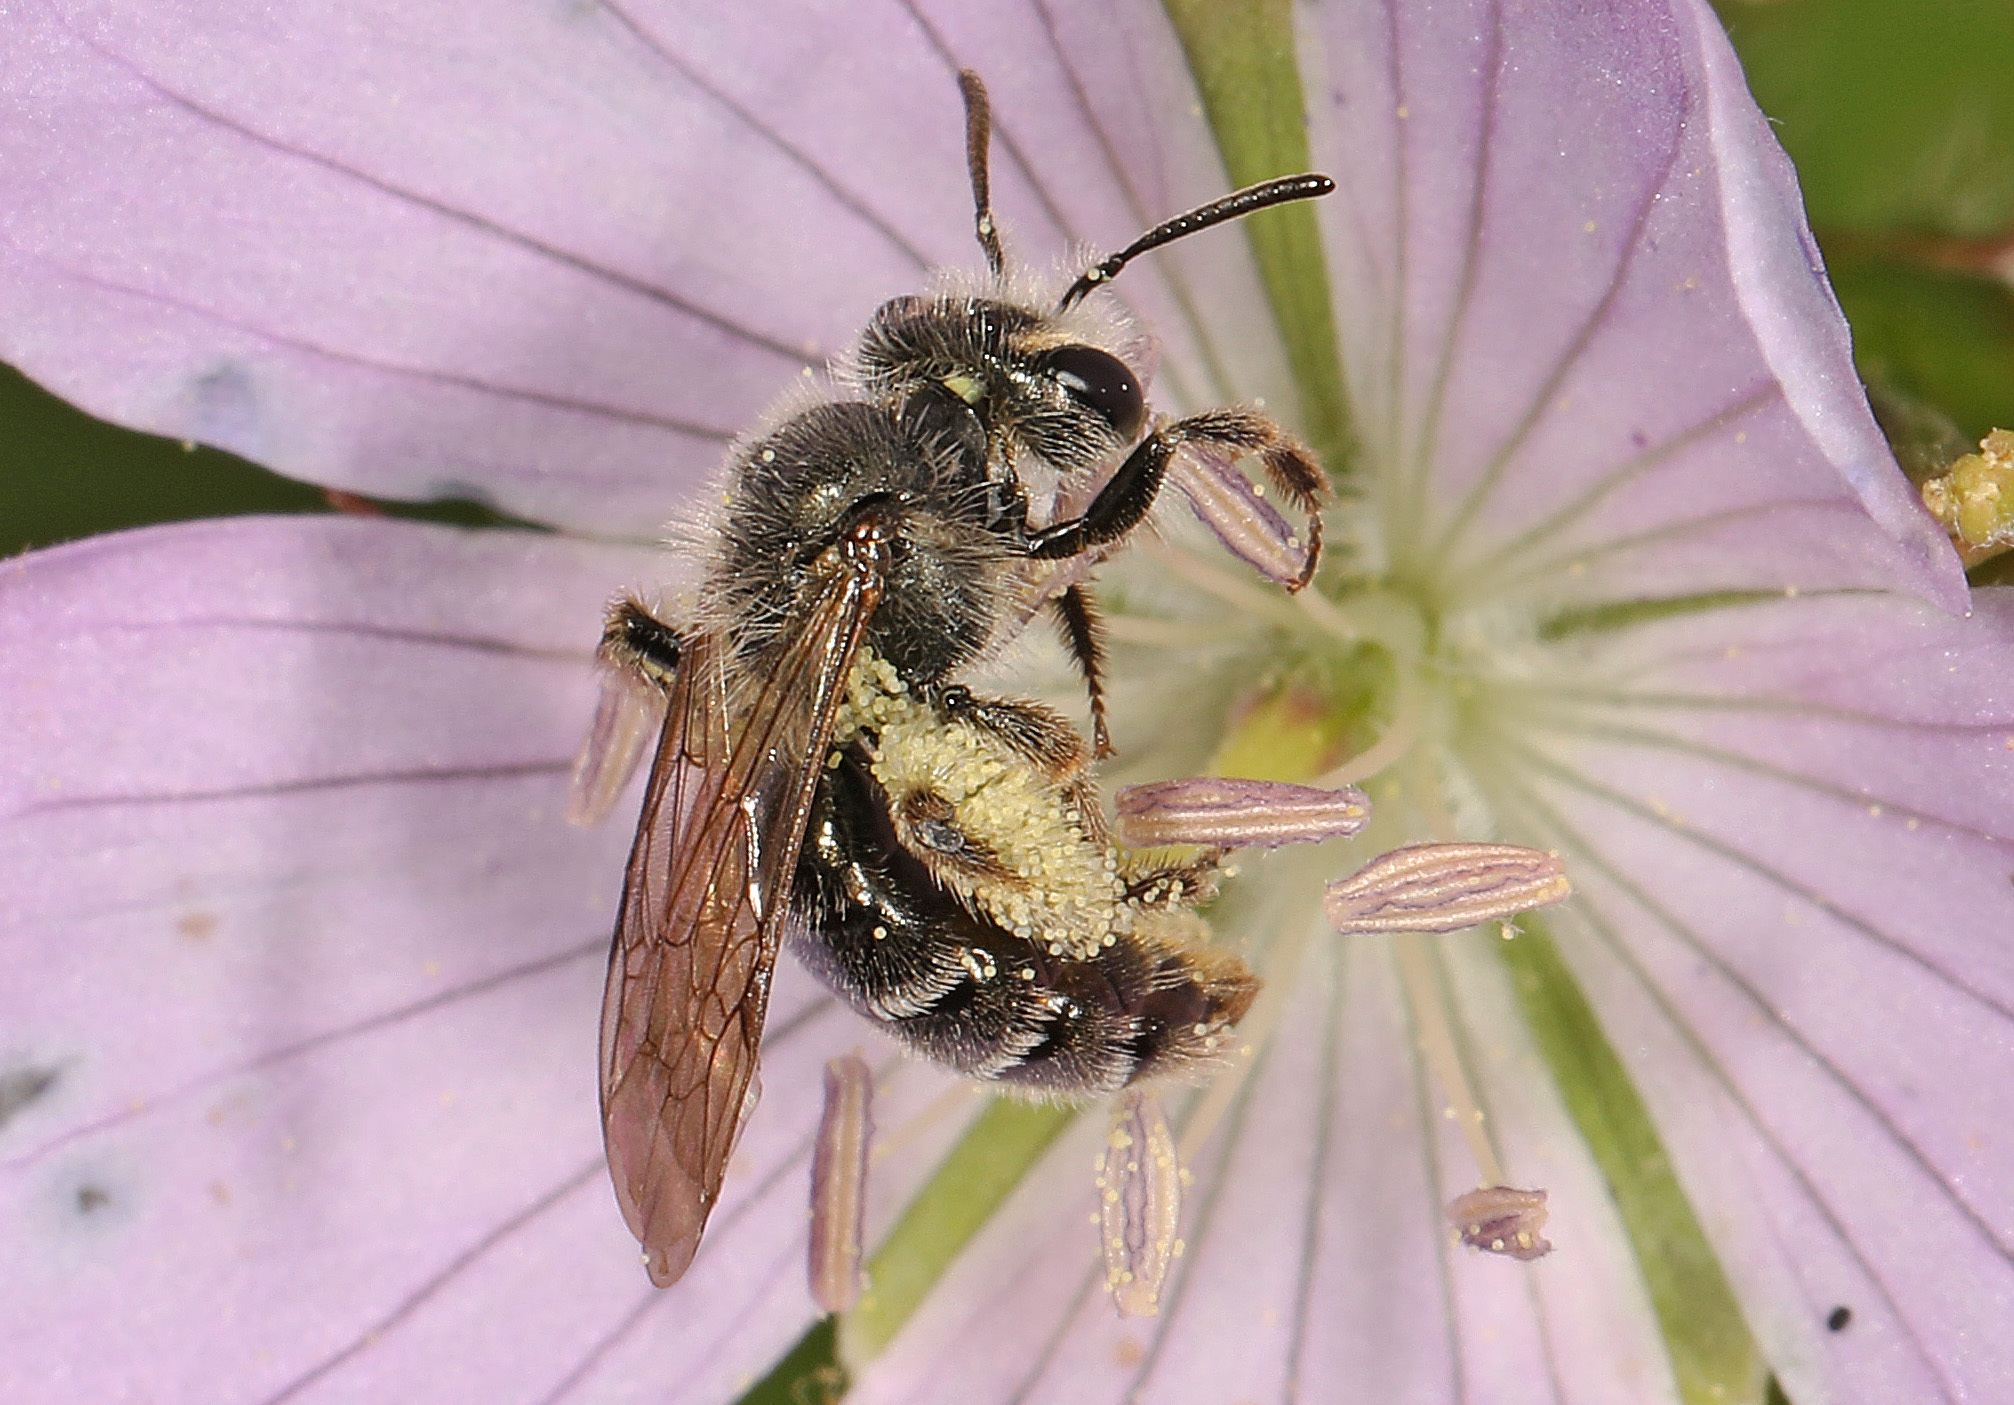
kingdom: Animalia
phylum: Arthropoda
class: Insecta
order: Hymenoptera
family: Andrenidae
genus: Andrena
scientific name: Andrena distans
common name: Cranesbill miner
